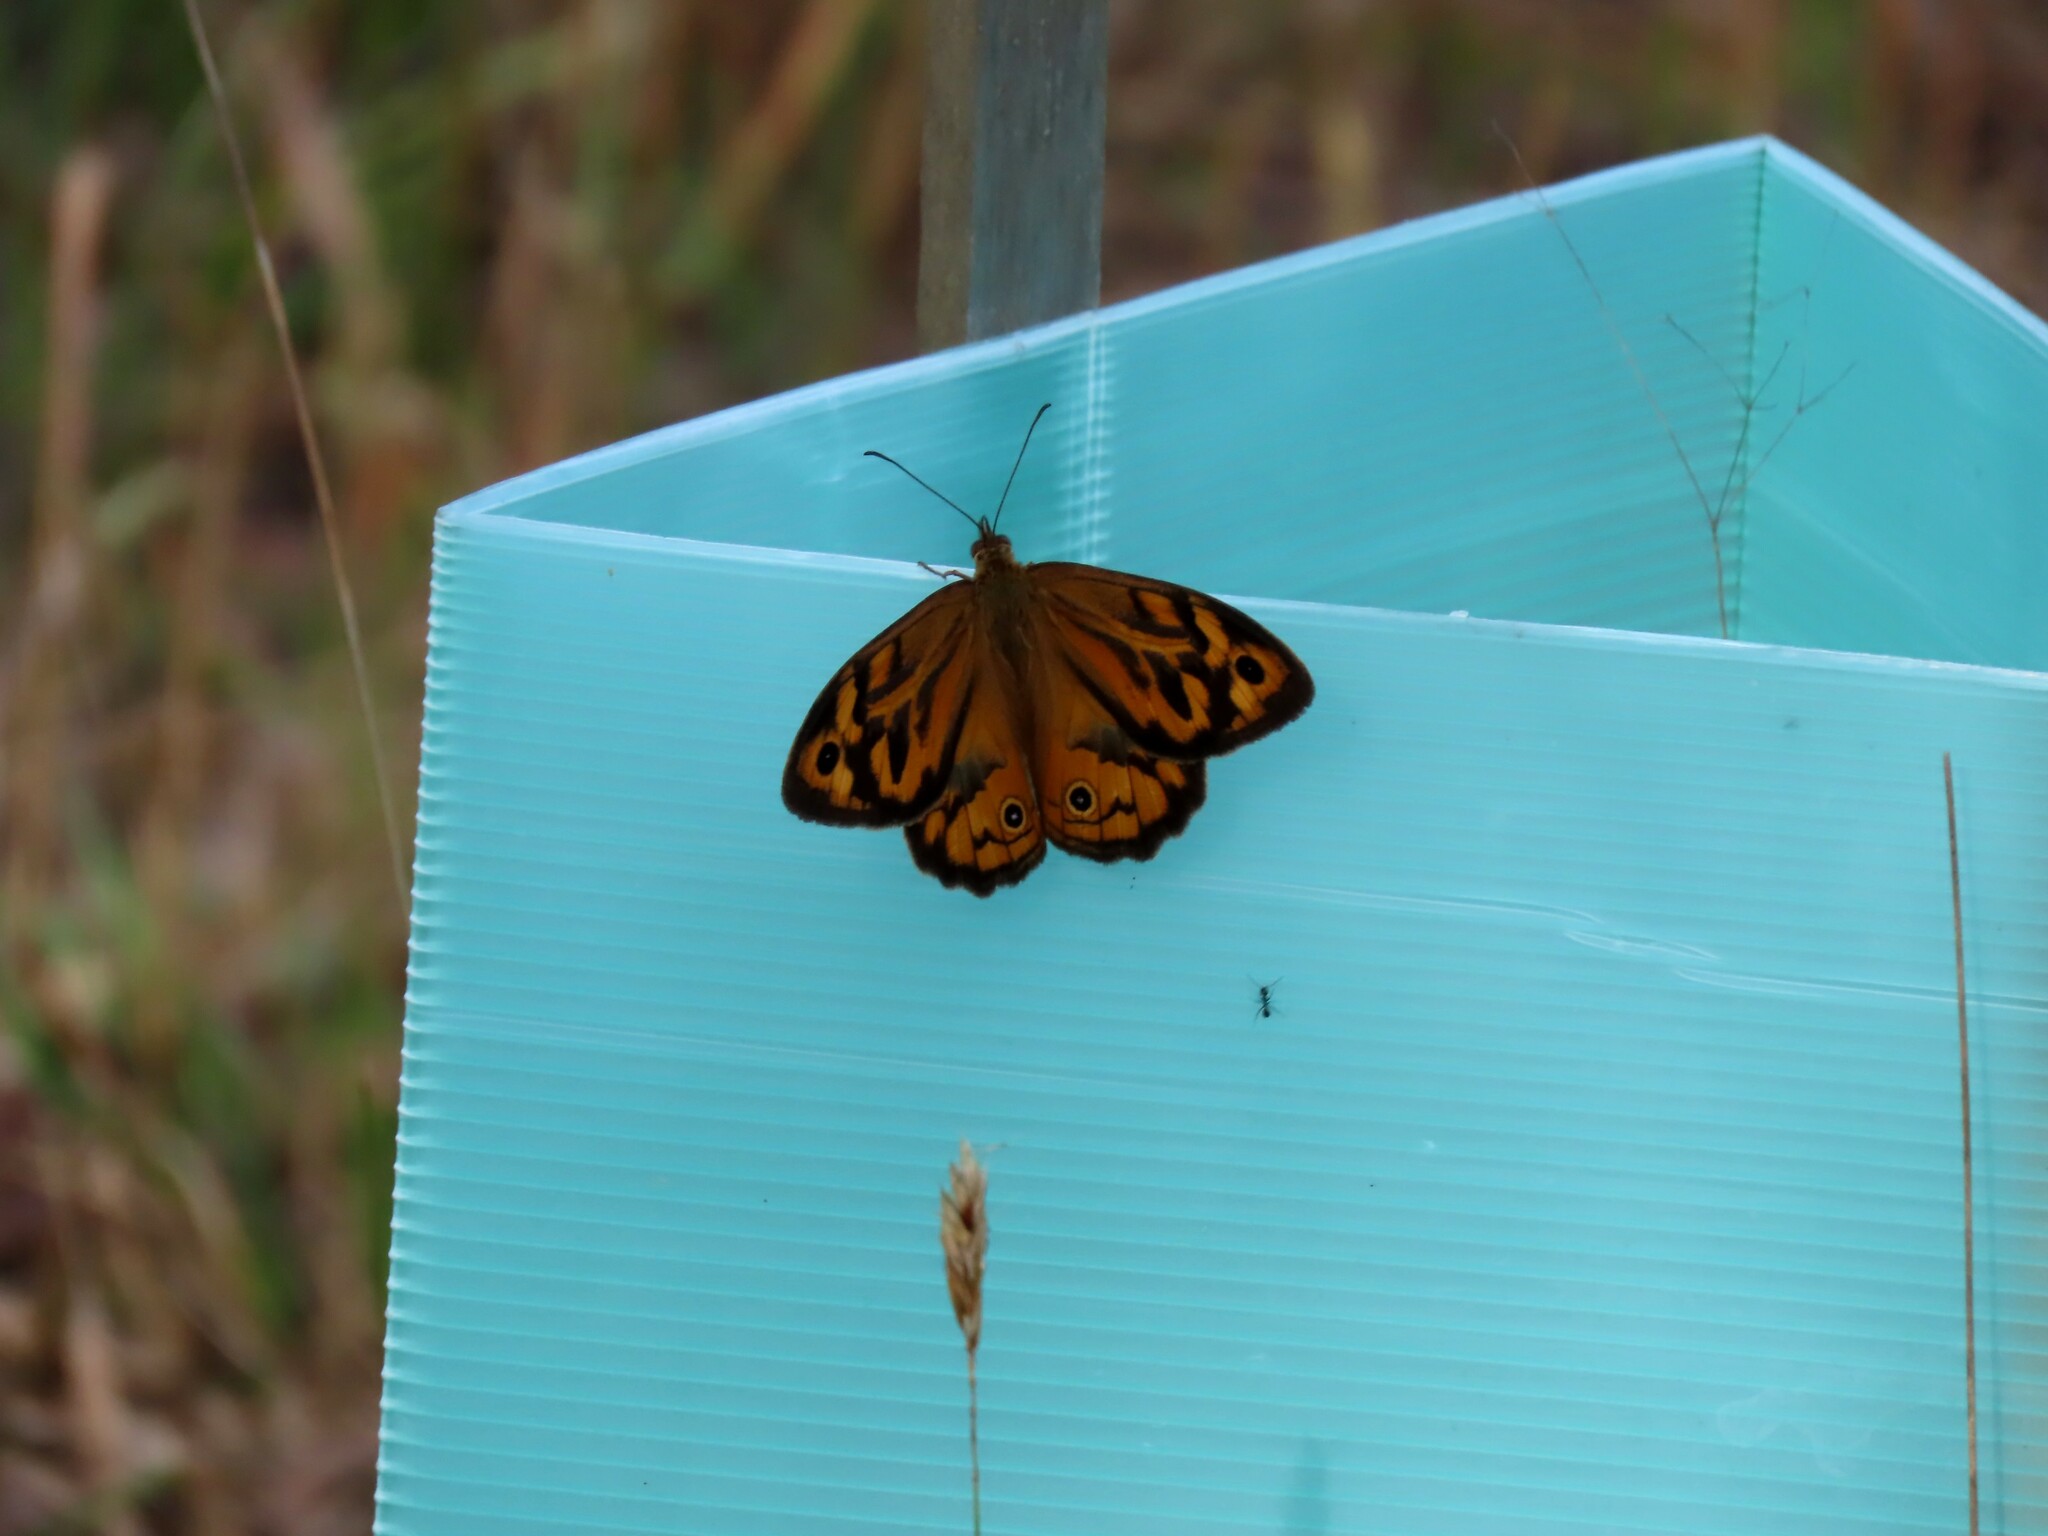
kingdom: Animalia
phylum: Arthropoda
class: Insecta
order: Lepidoptera
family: Nymphalidae
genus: Heteronympha
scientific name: Heteronympha merope
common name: Common brown
